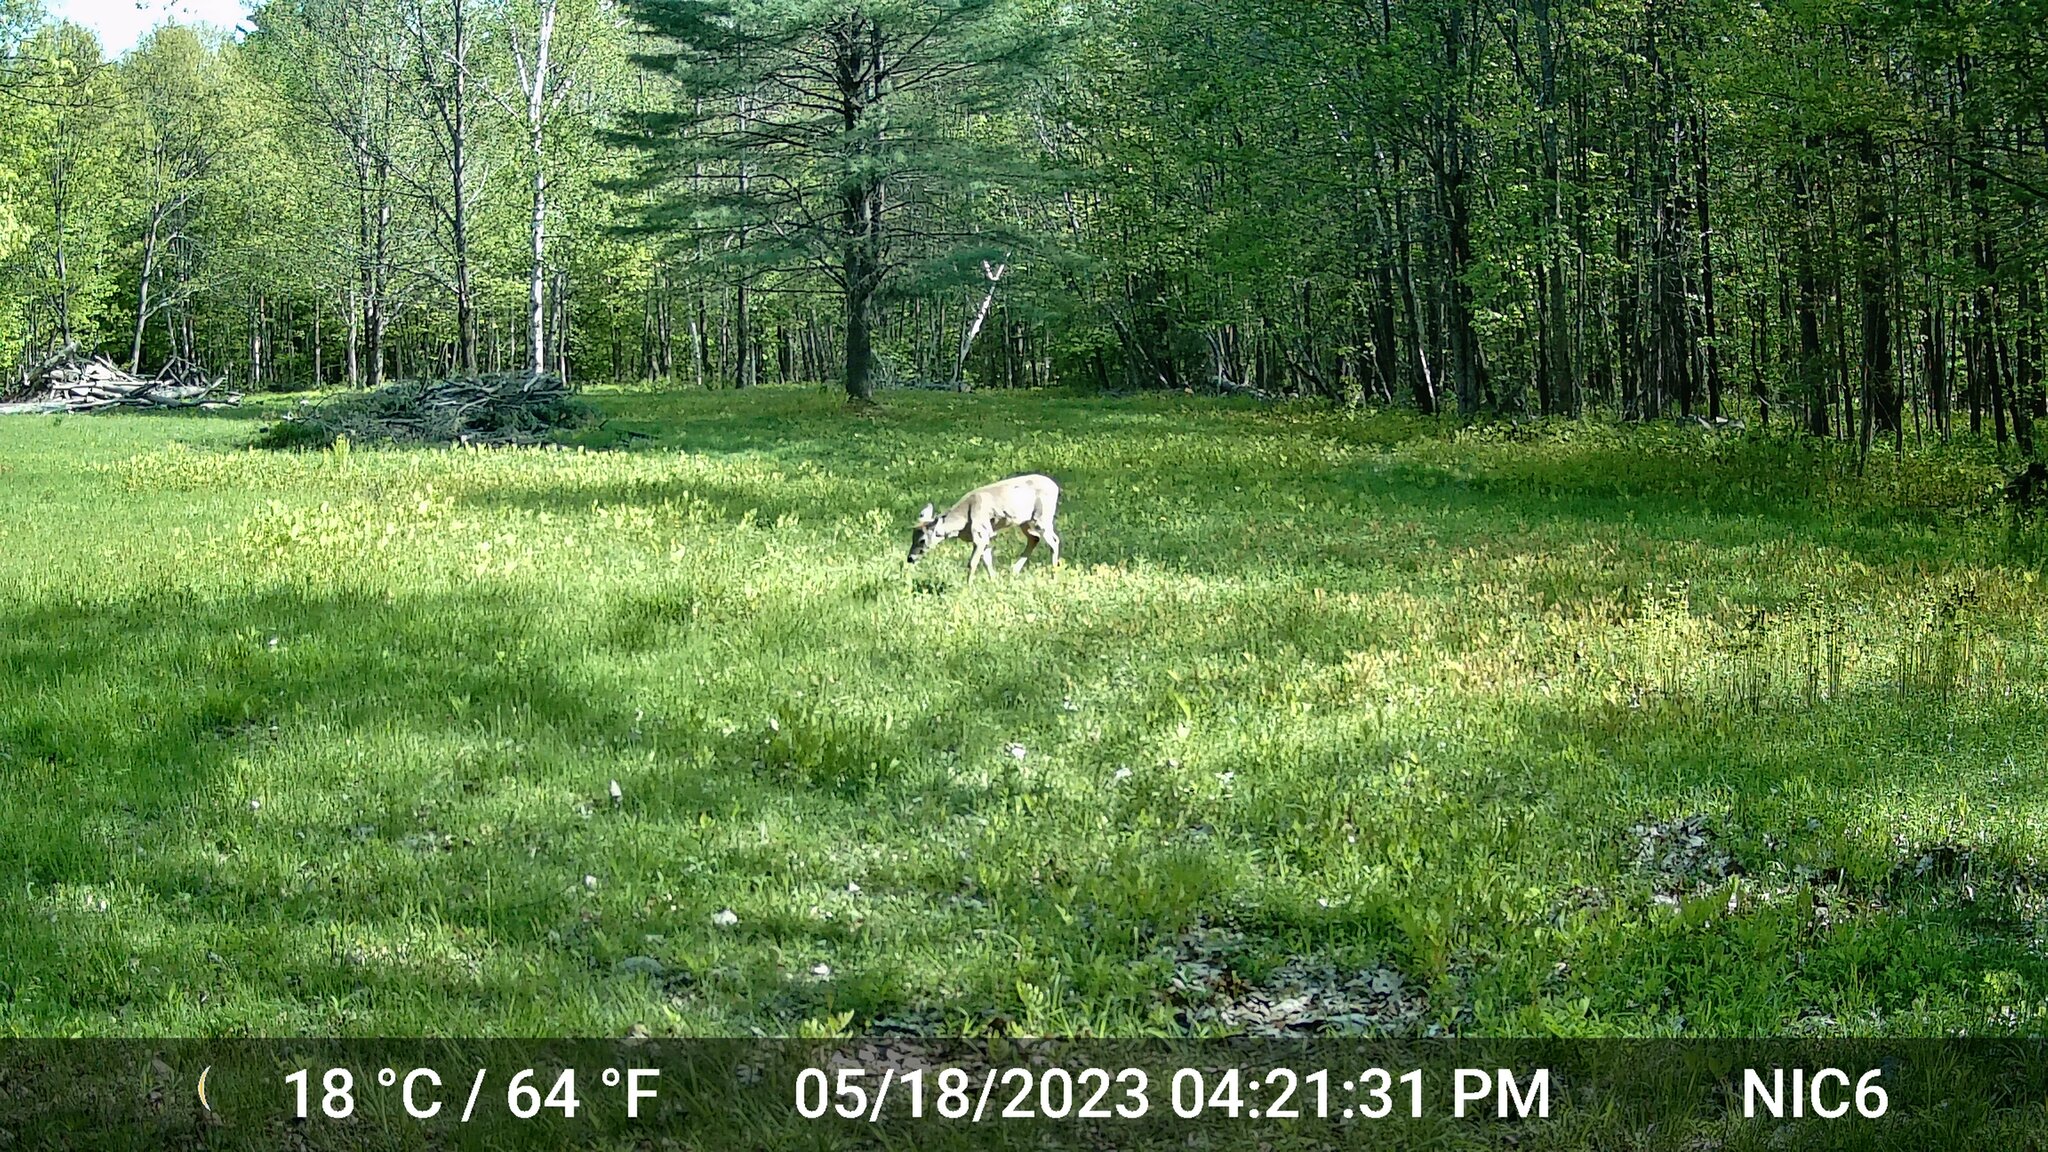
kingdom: Animalia
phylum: Chordata
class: Mammalia
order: Artiodactyla
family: Cervidae
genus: Odocoileus
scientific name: Odocoileus virginianus
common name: White-tailed deer
